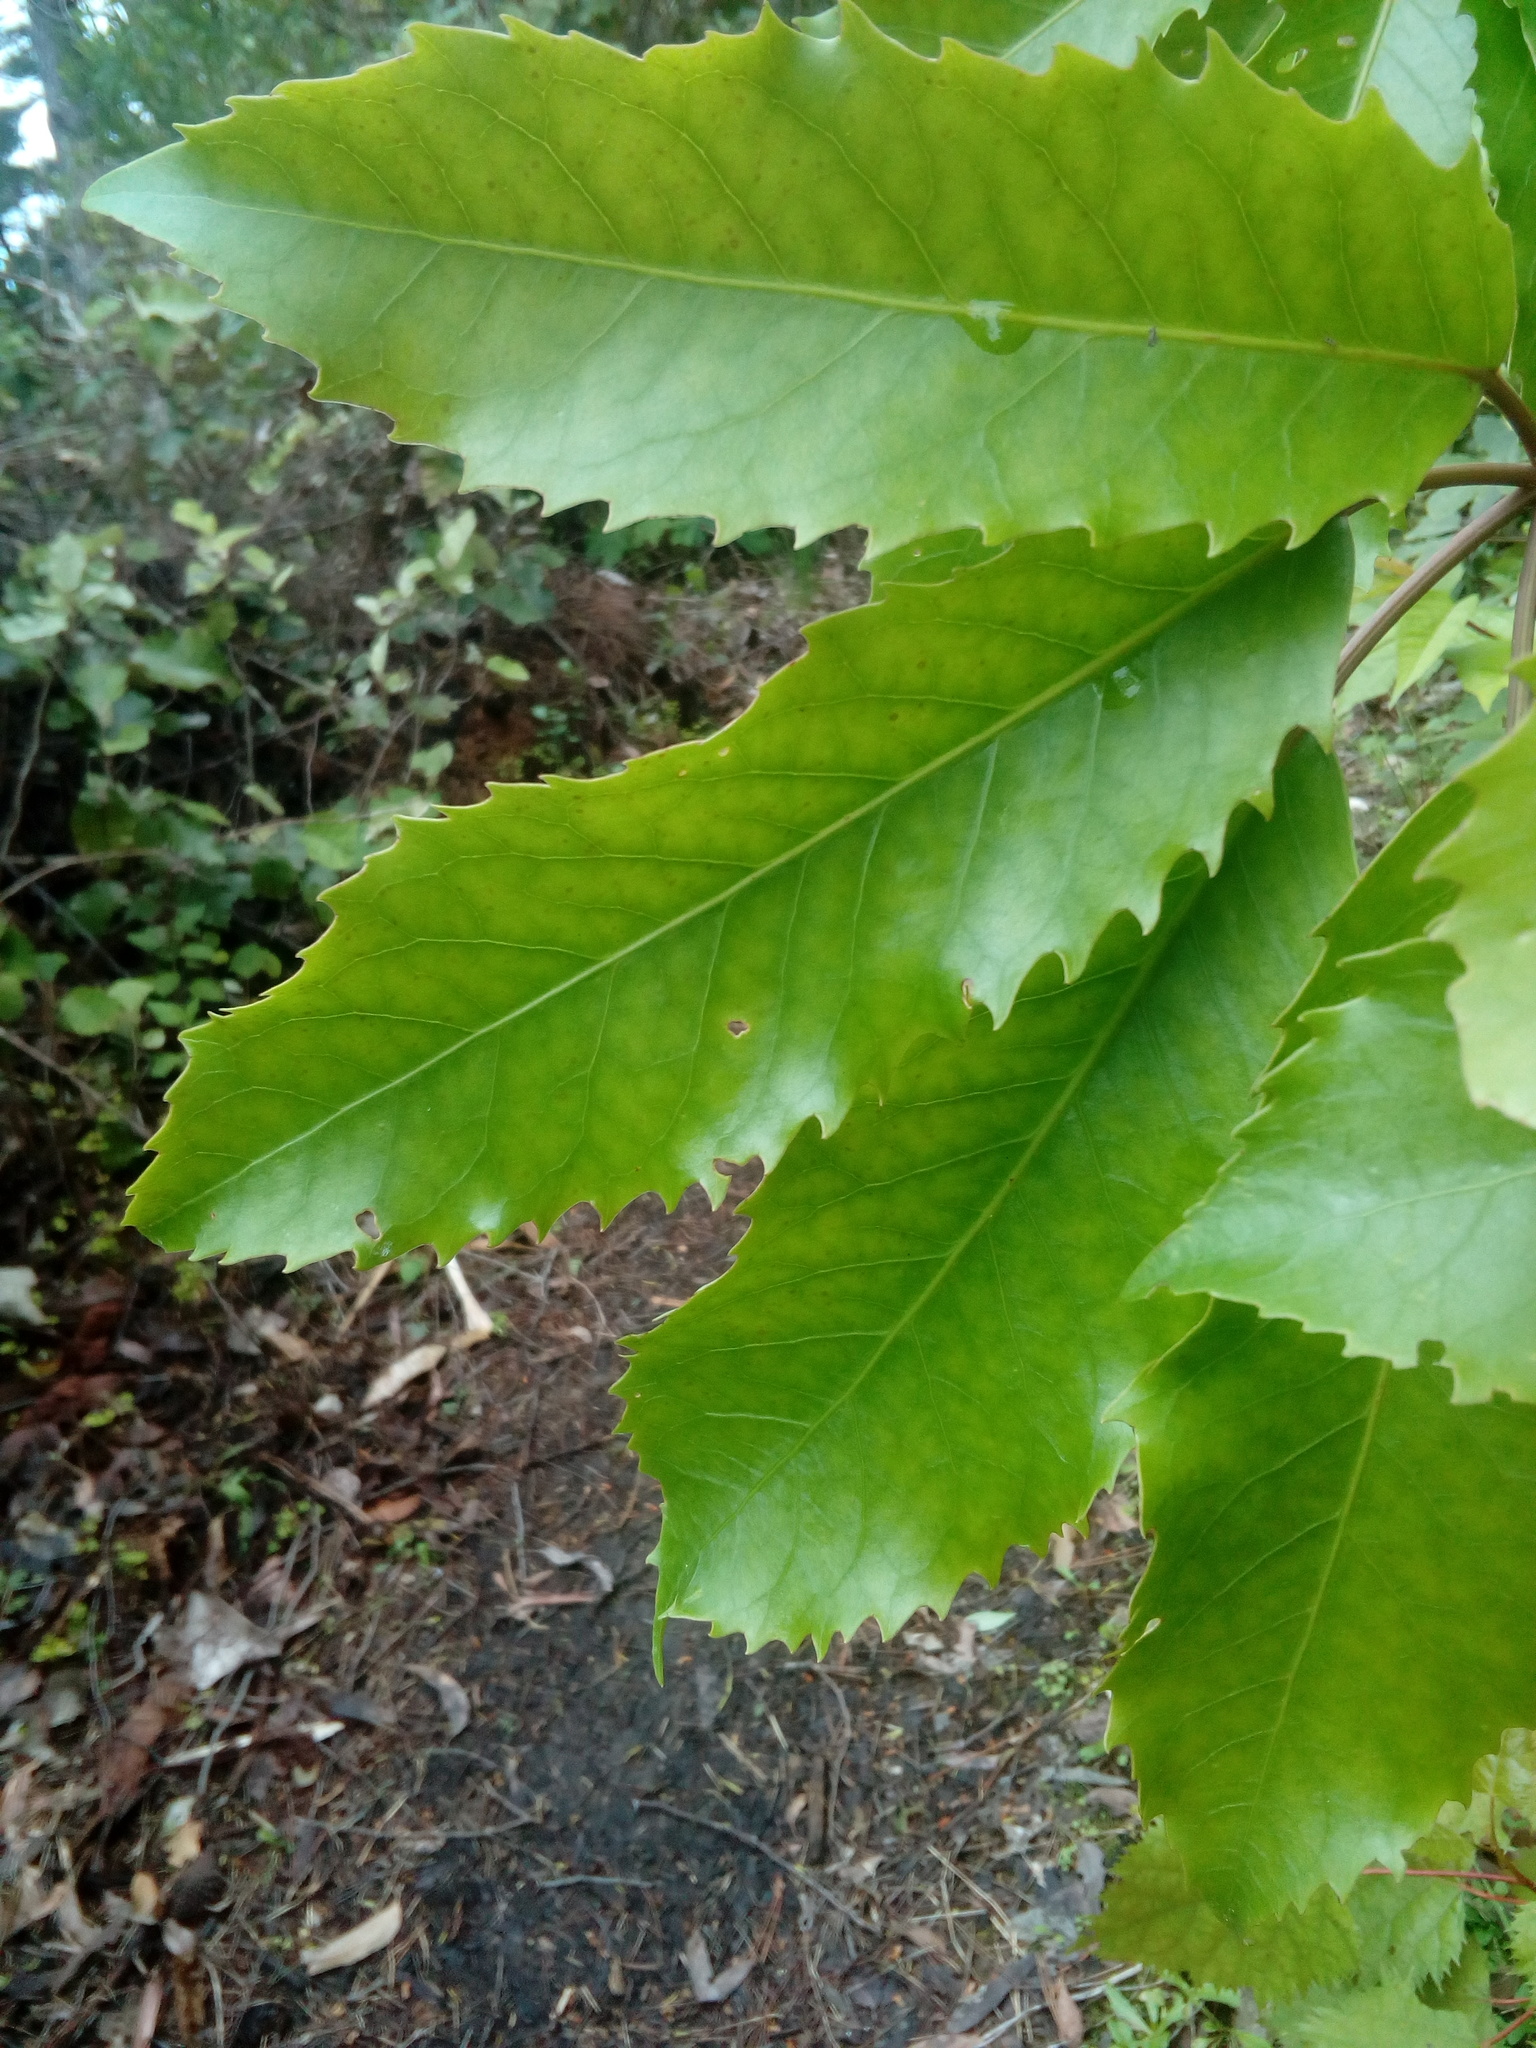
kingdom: Plantae
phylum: Tracheophyta
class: Magnoliopsida
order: Apiales
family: Araliaceae
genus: Neopanax
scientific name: Neopanax arboreus
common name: Five-fingers
